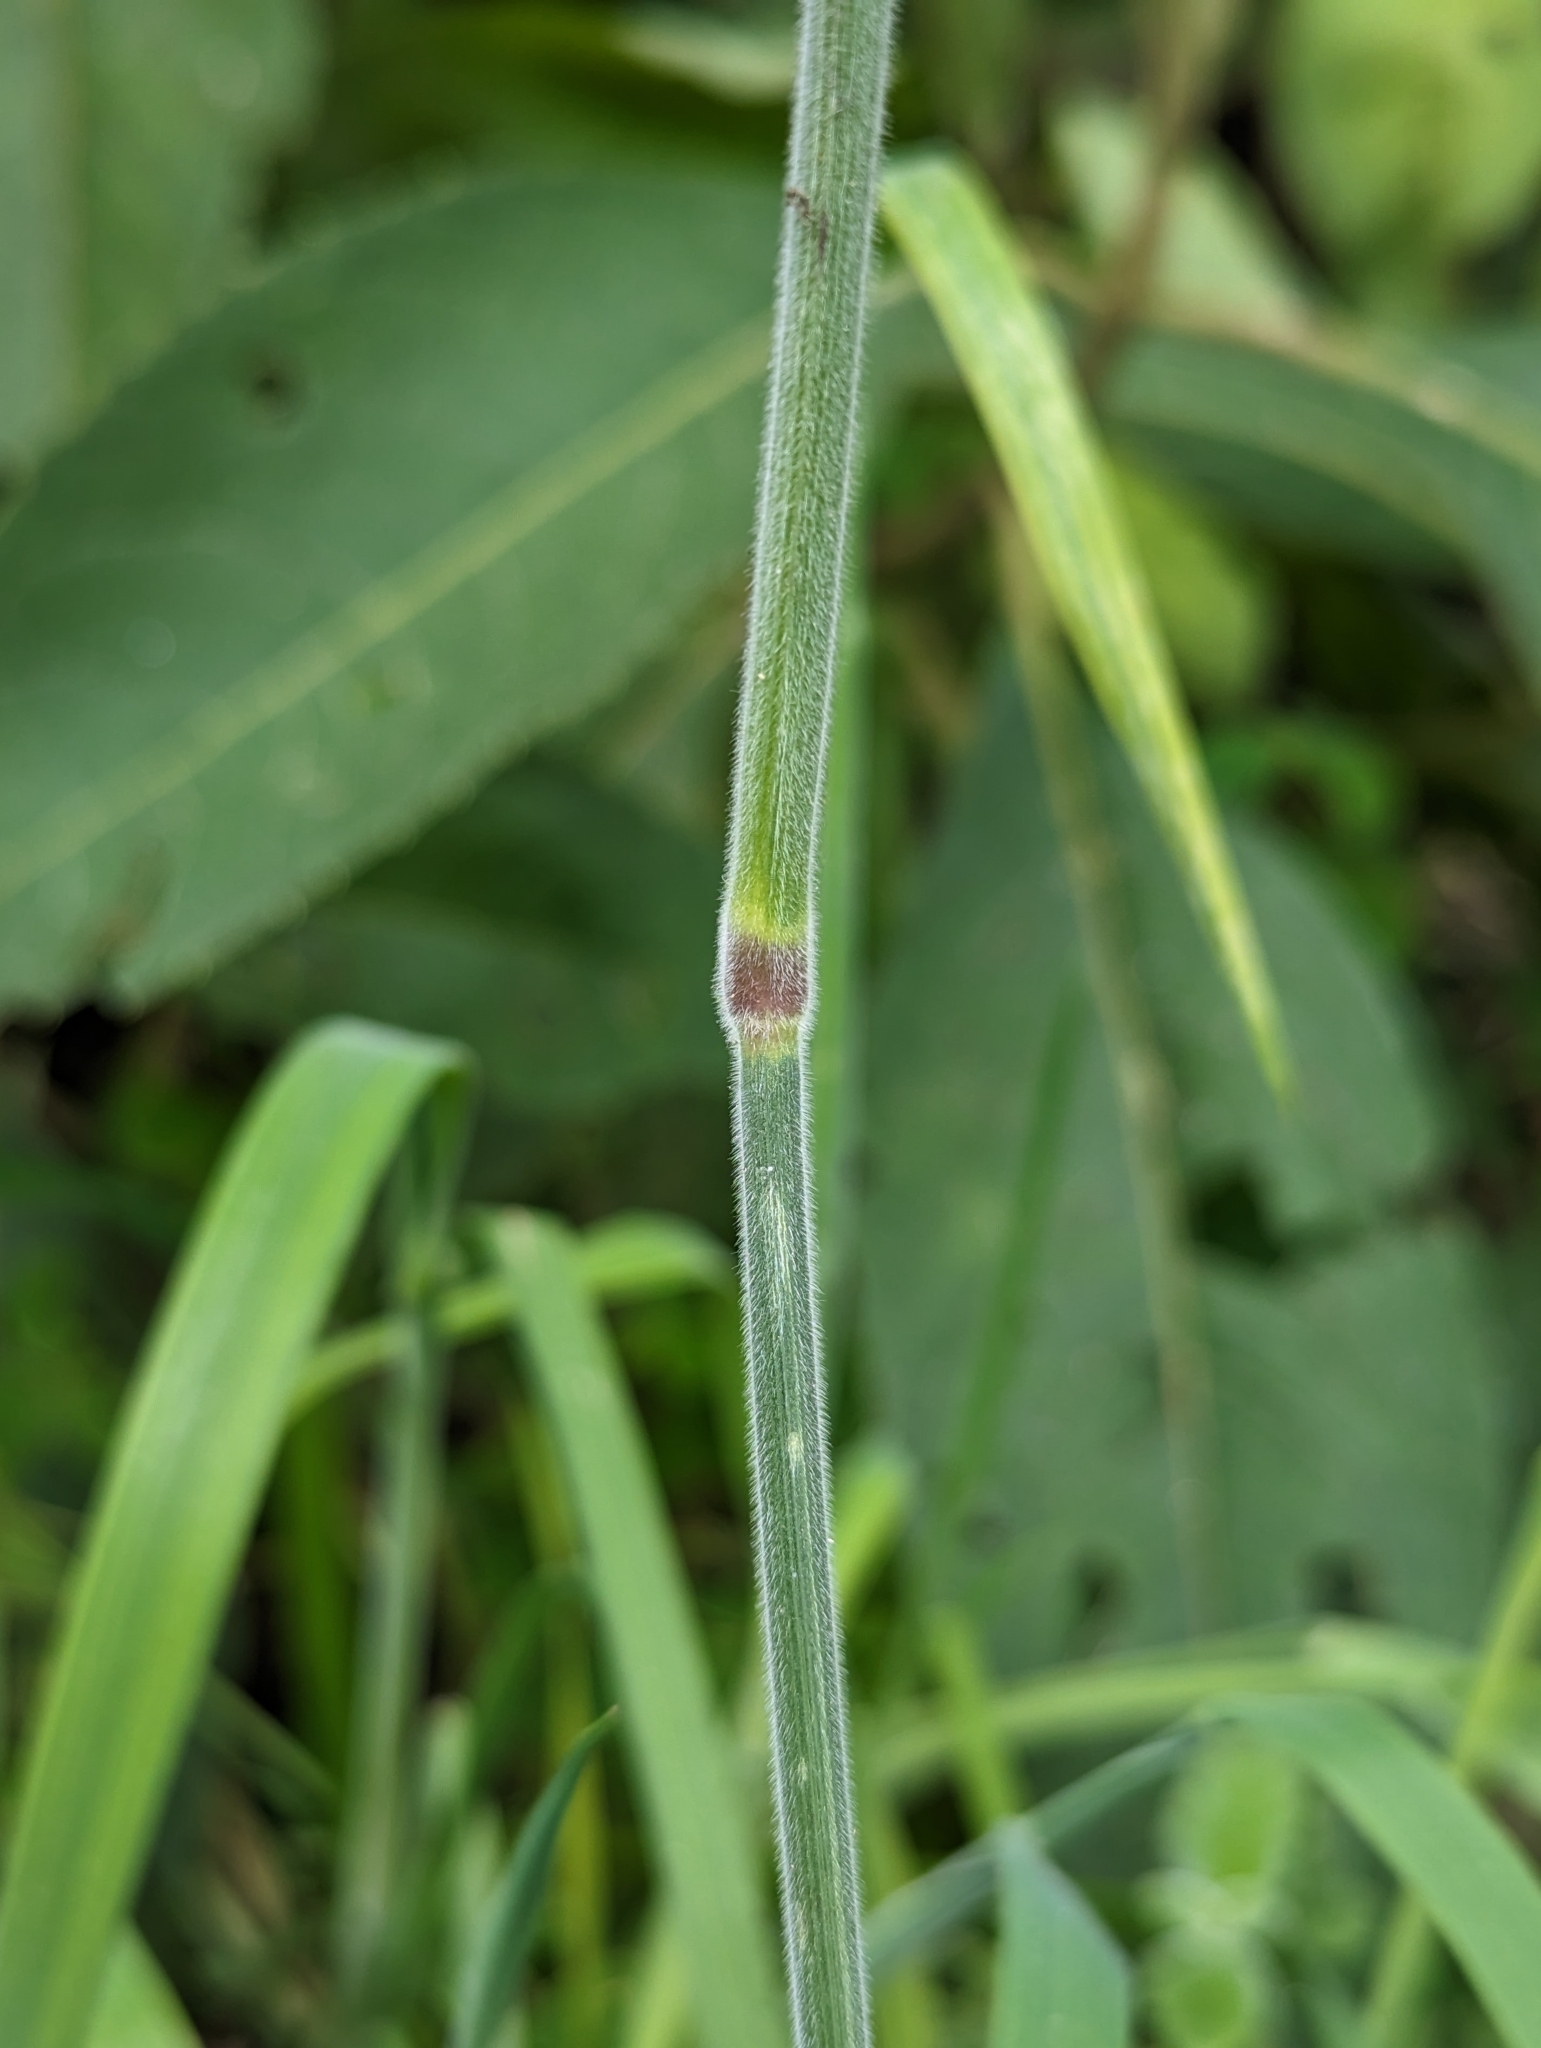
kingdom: Plantae
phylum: Tracheophyta
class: Liliopsida
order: Poales
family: Poaceae
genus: Holcus
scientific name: Holcus lanatus
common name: Yorkshire-fog
